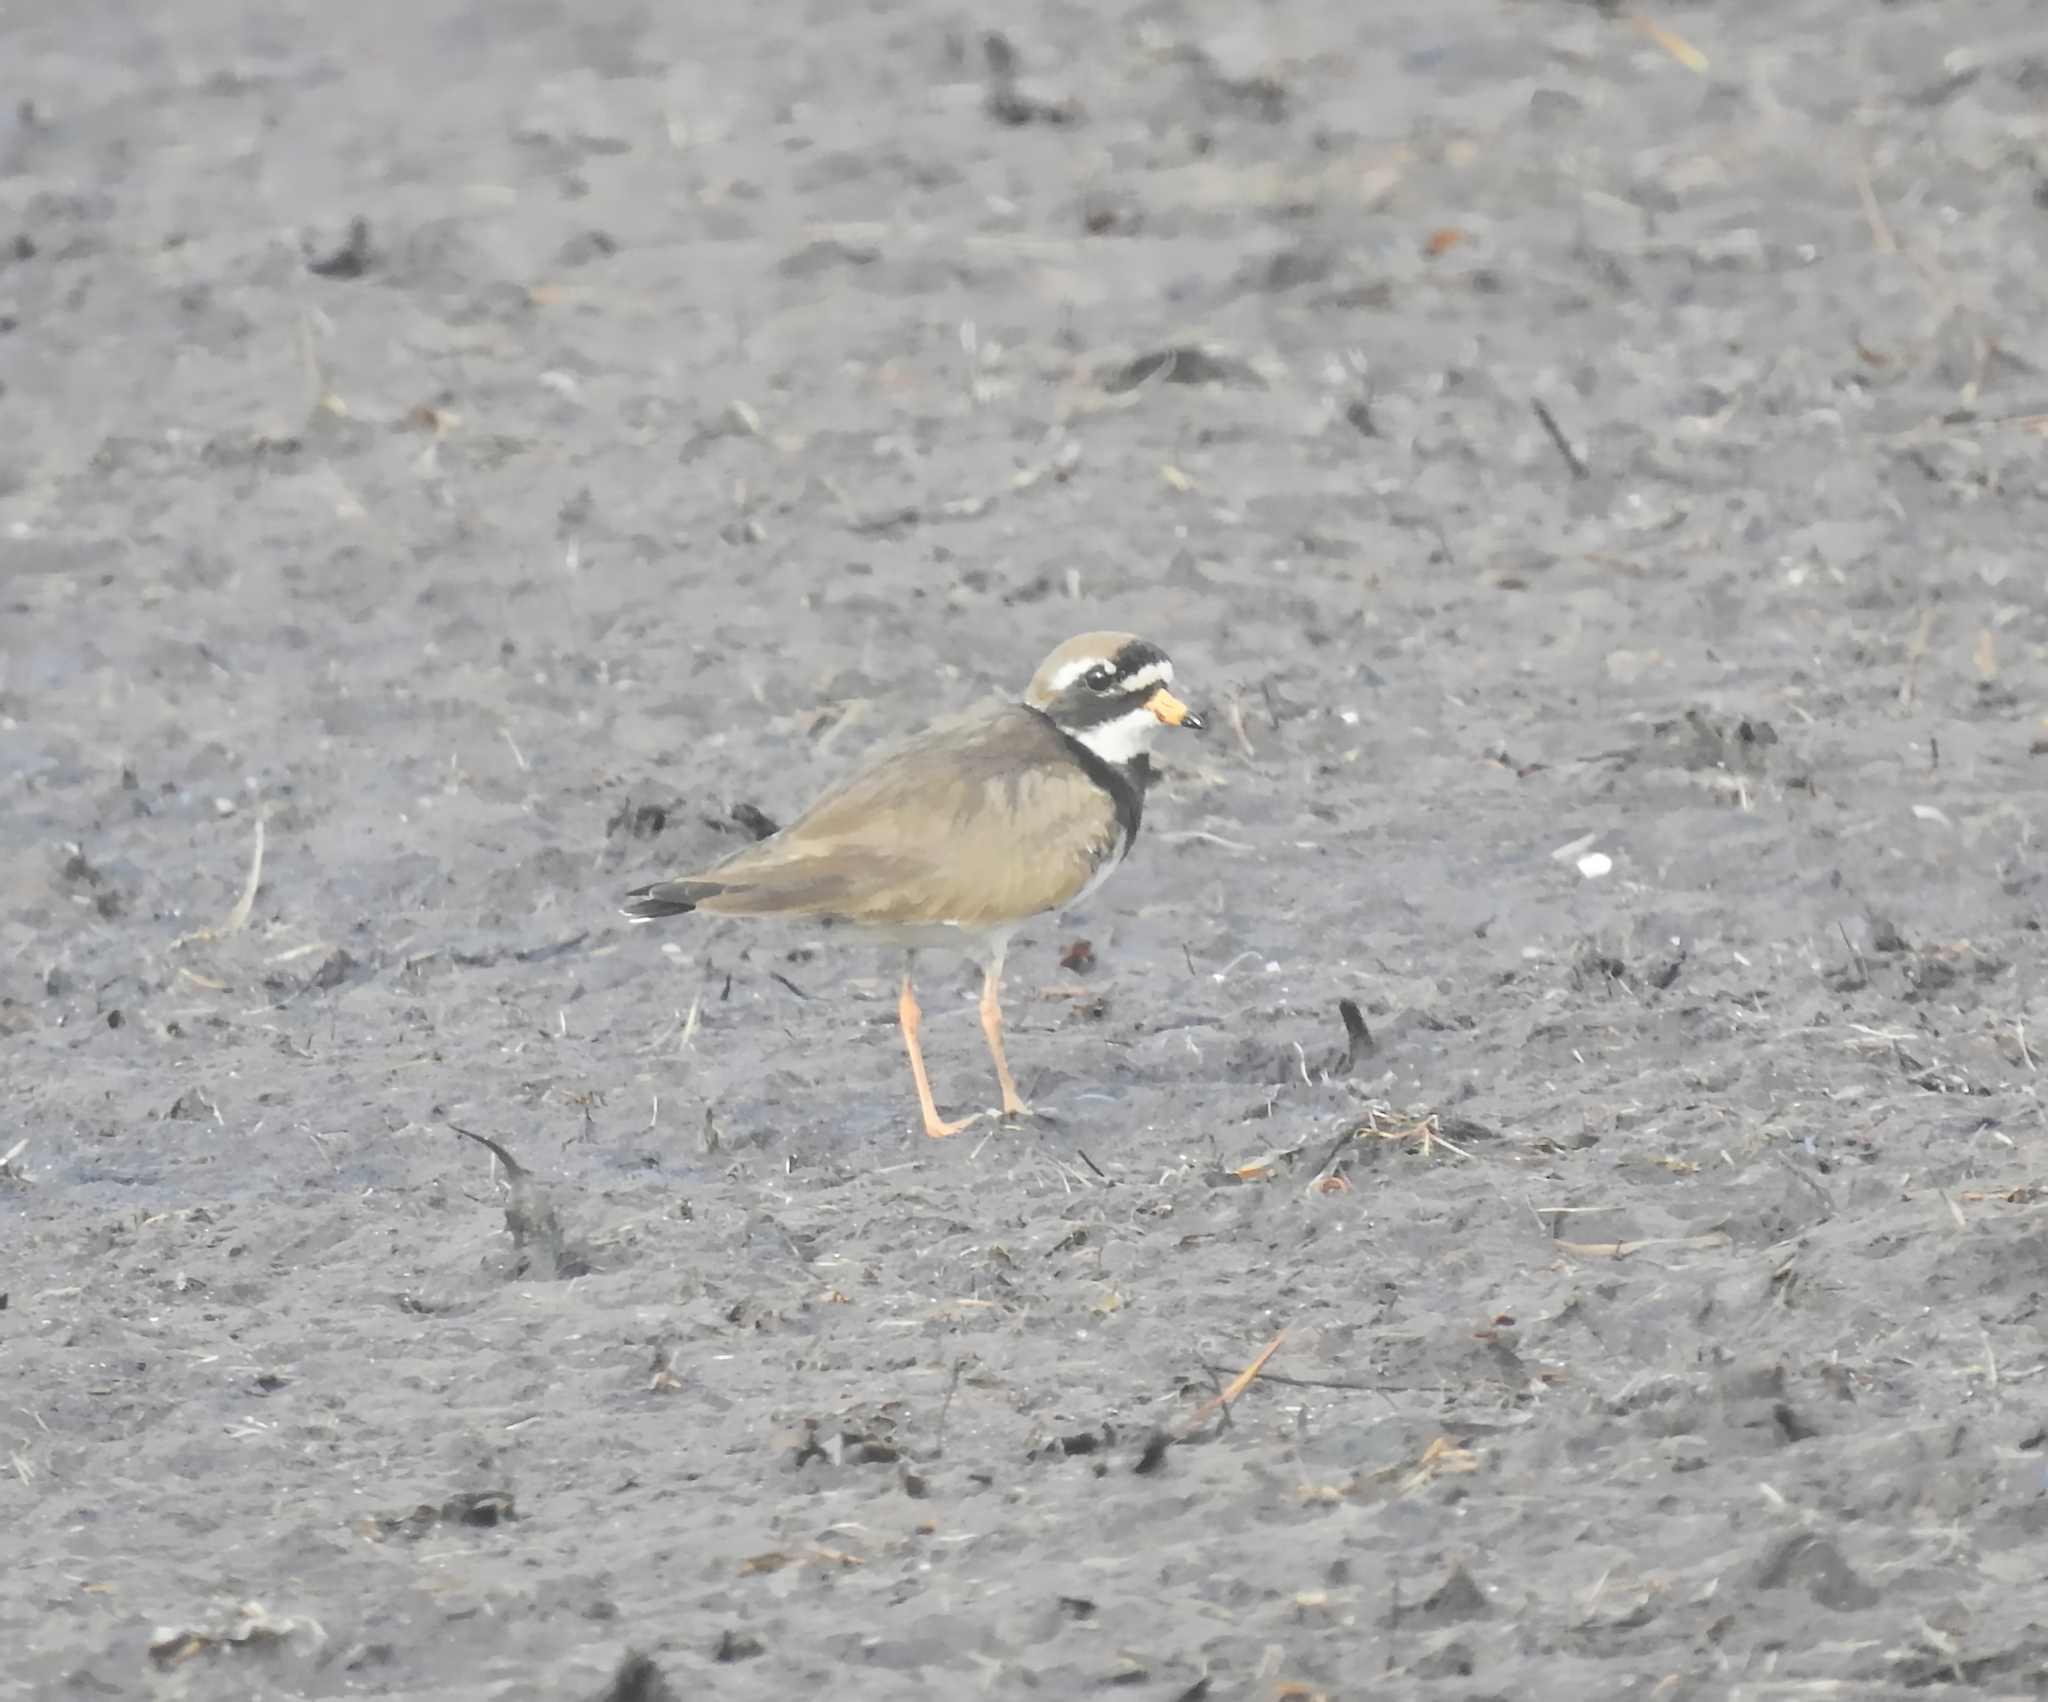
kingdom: Animalia
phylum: Chordata
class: Aves
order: Charadriiformes
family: Charadriidae
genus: Charadrius
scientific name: Charadrius hiaticula
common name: Common ringed plover
